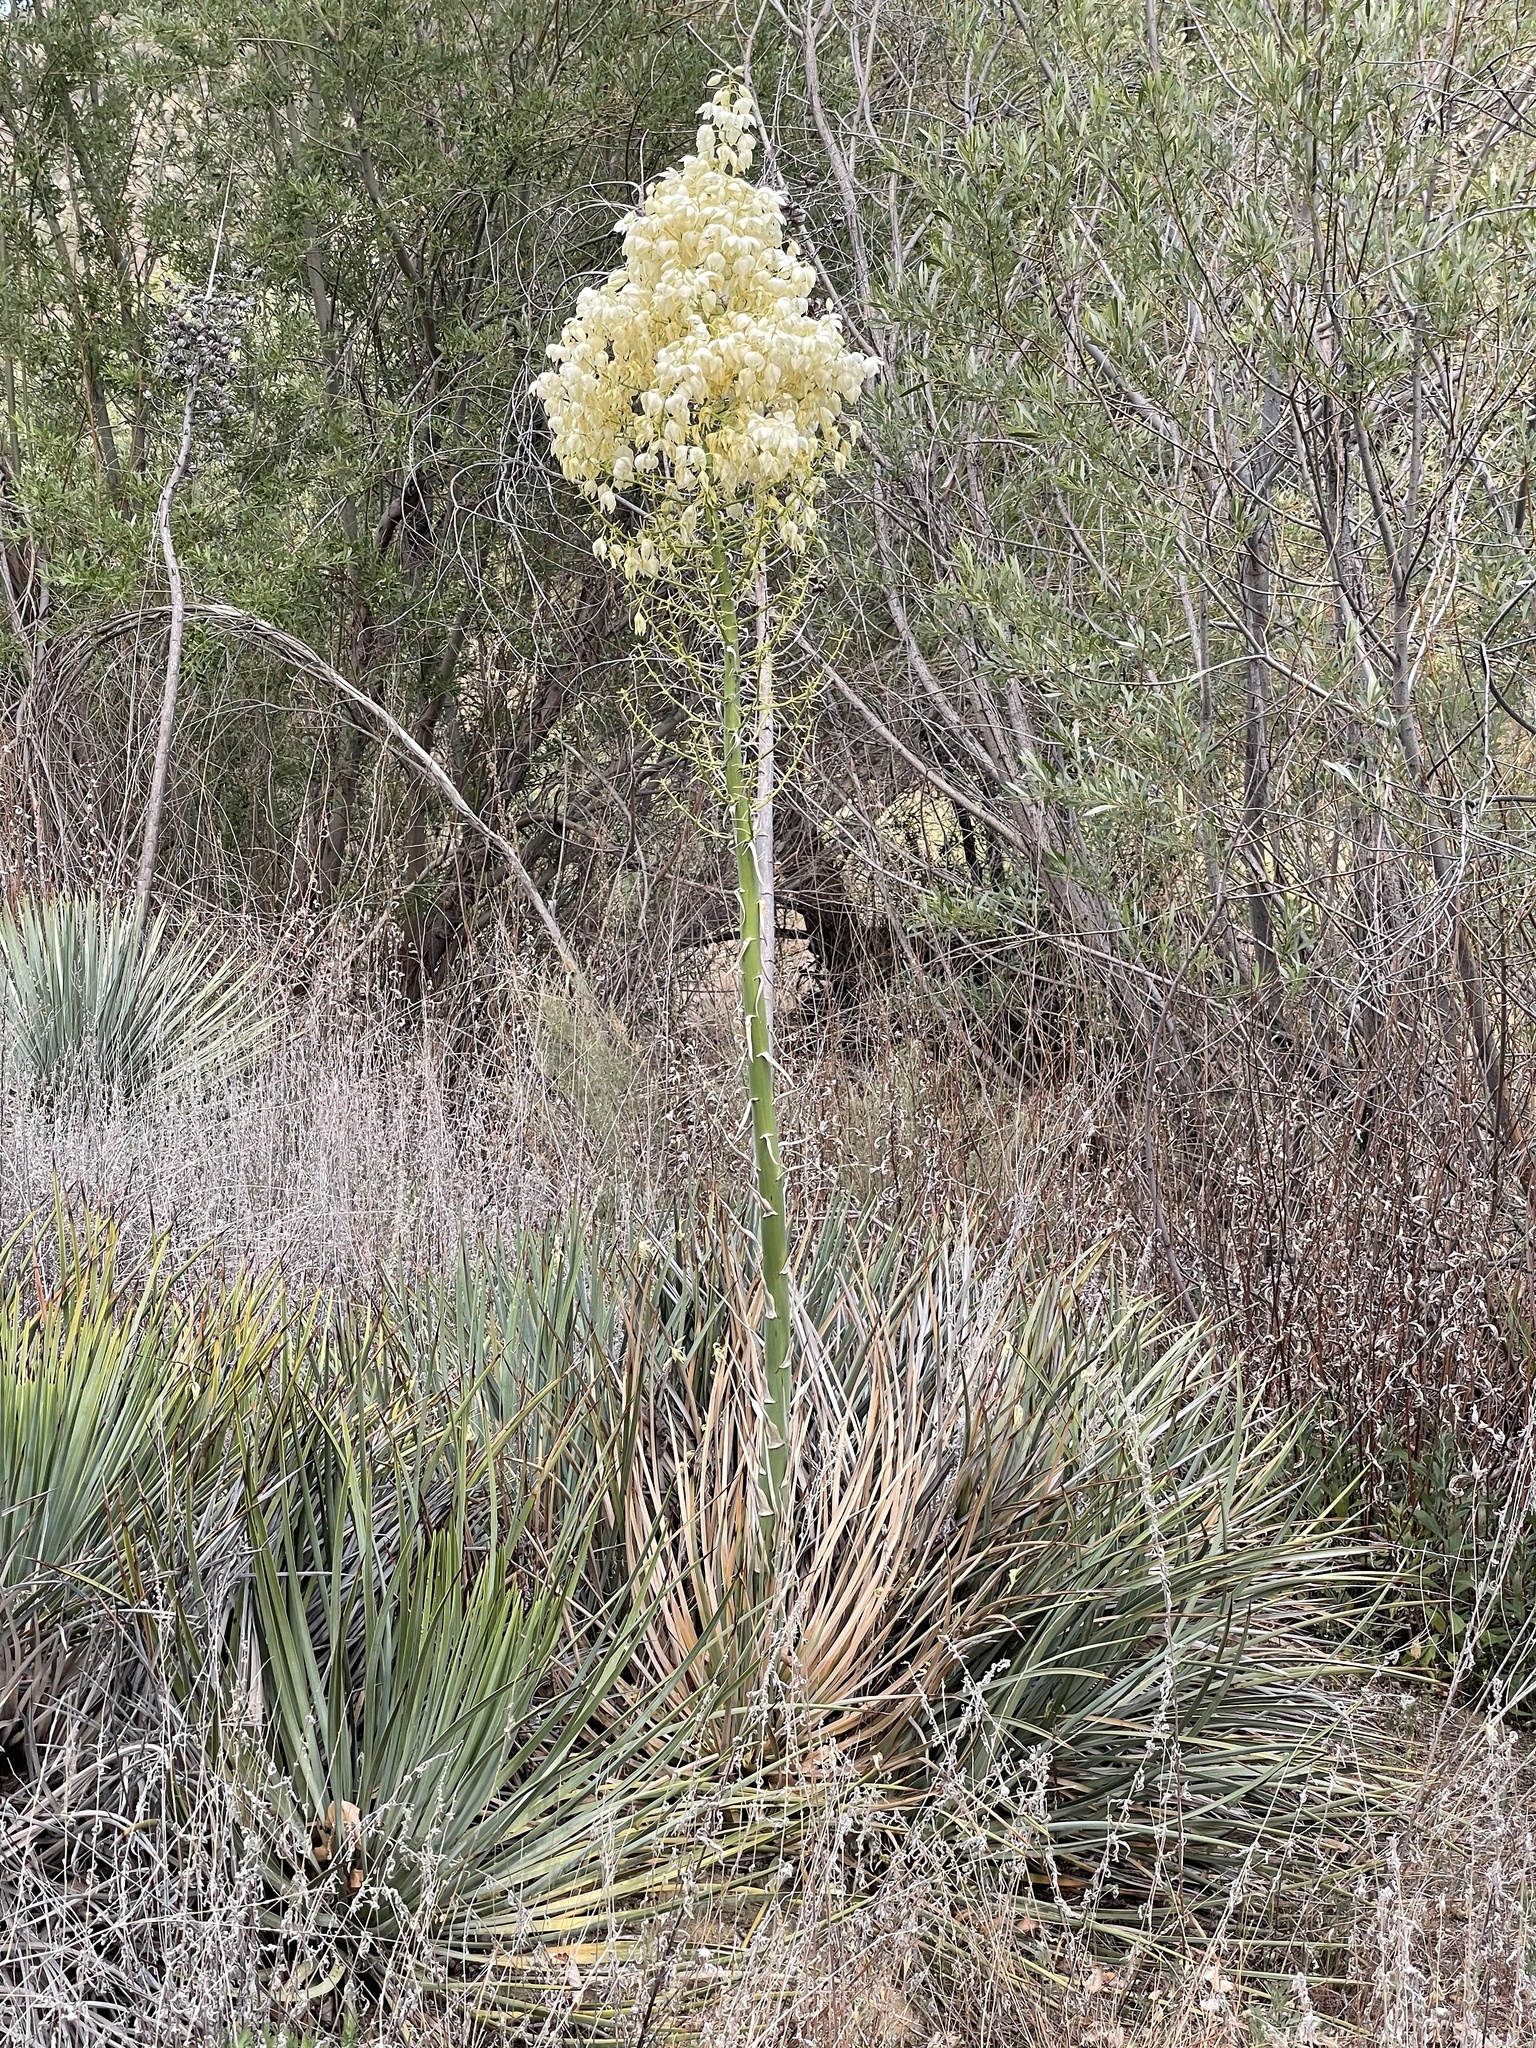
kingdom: Plantae
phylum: Tracheophyta
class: Liliopsida
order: Asparagales
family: Asparagaceae
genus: Hesperoyucca
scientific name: Hesperoyucca whipplei
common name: Our lord's-candle
